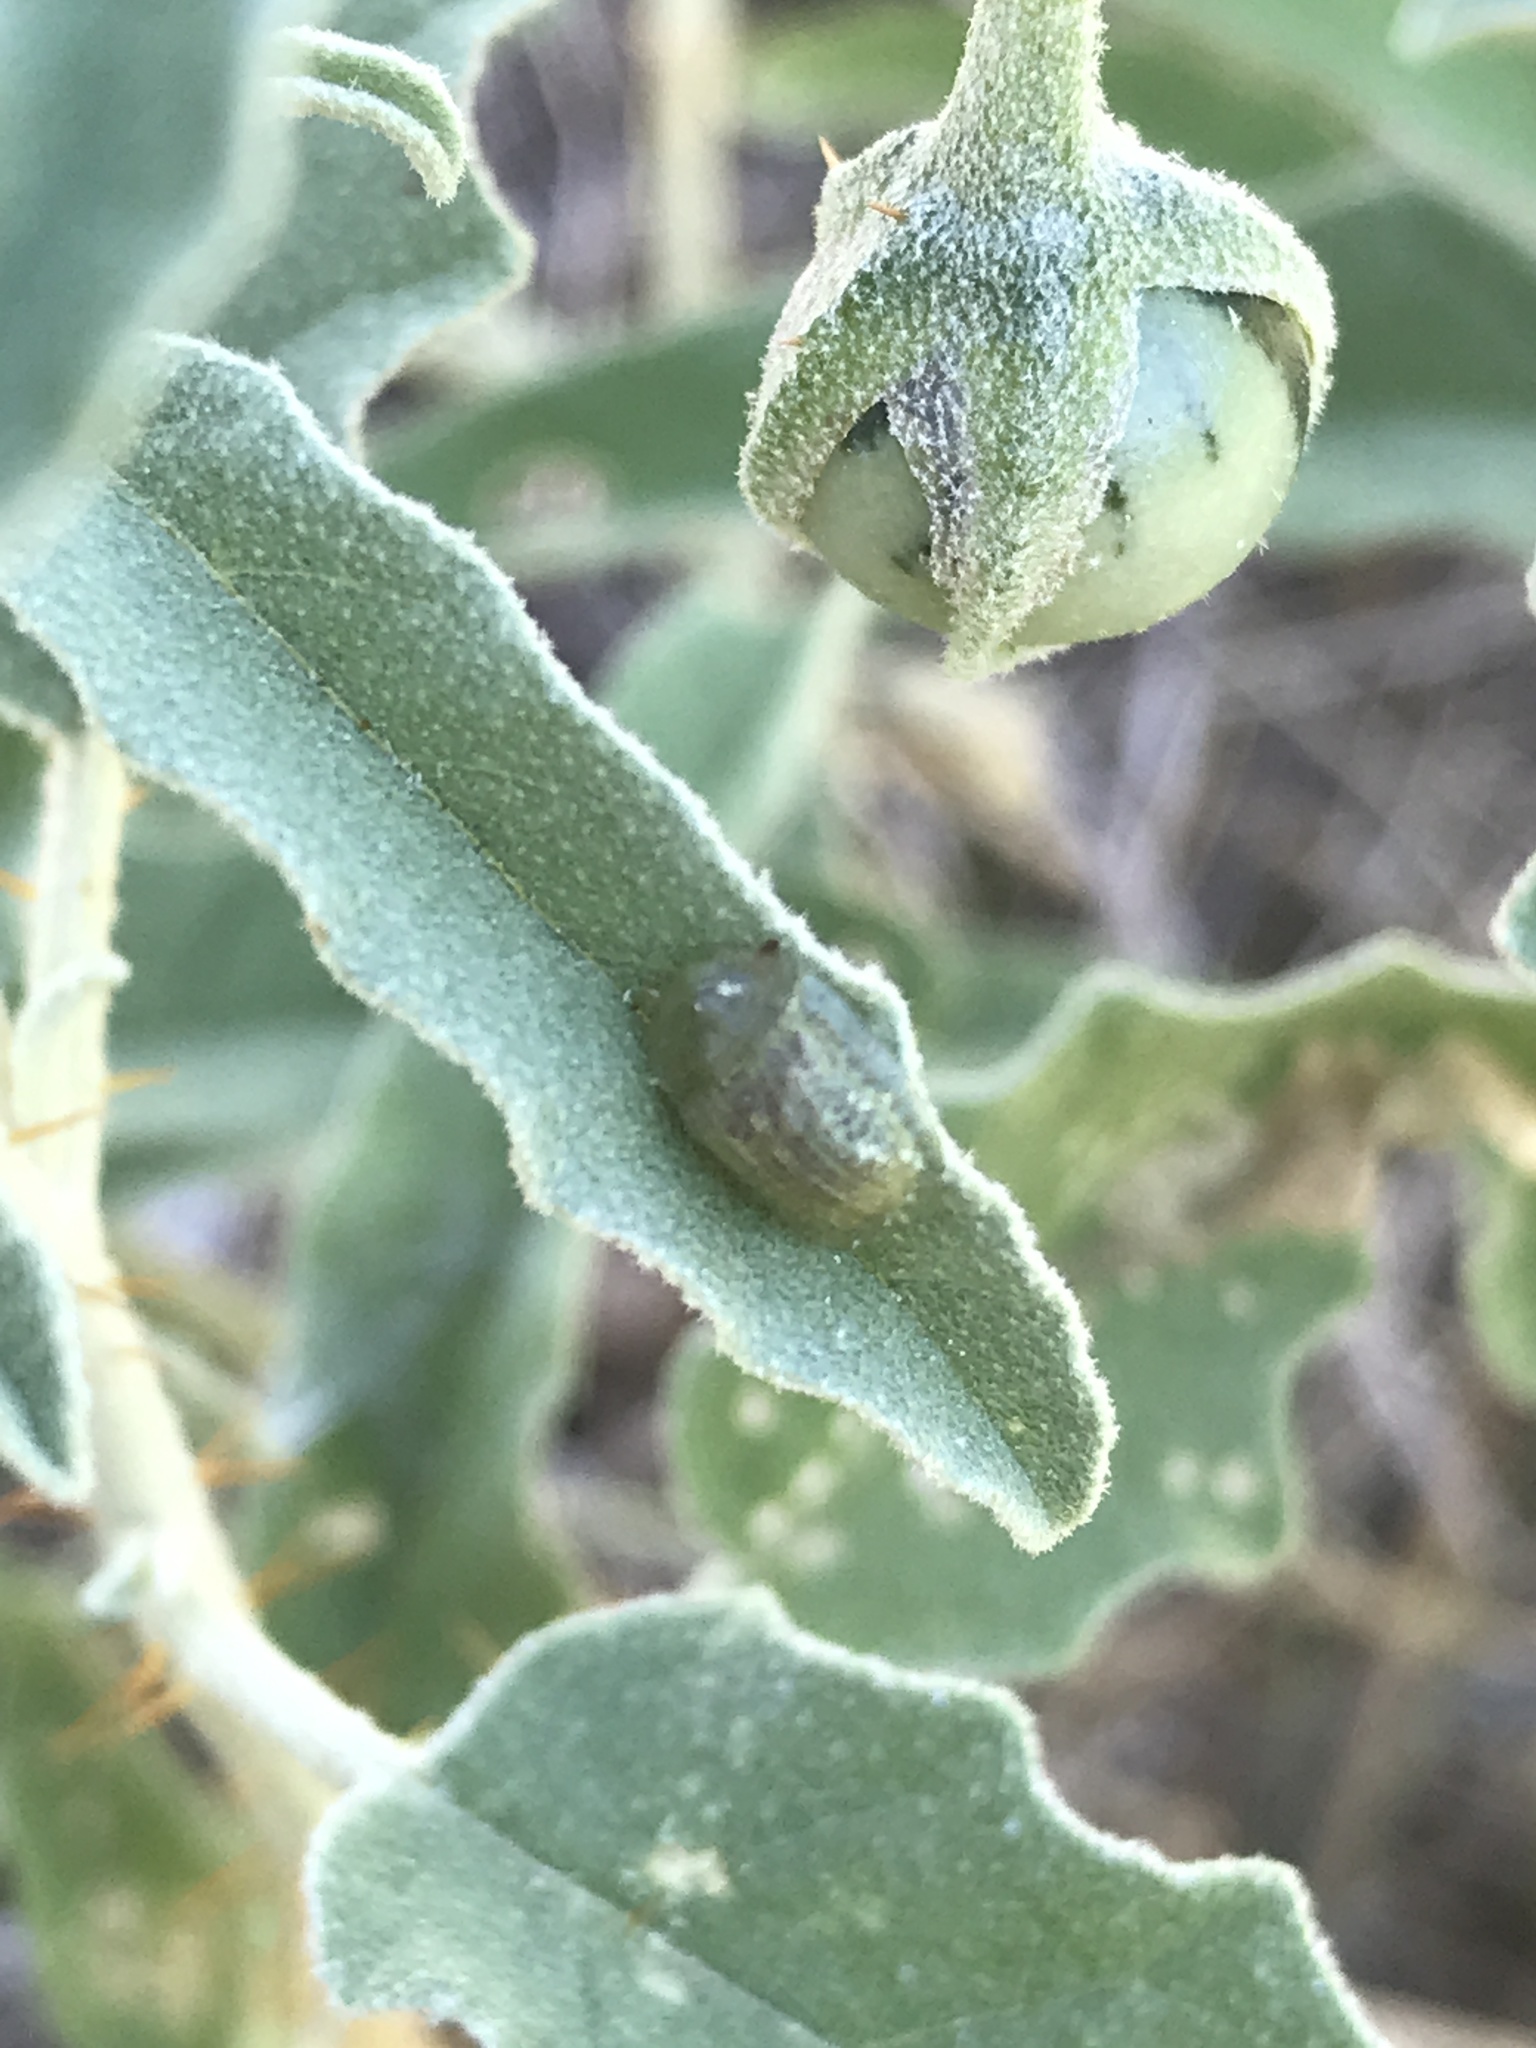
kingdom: Animalia
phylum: Arthropoda
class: Insecta
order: Coleoptera
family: Chrysomelidae
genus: Gratiana
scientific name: Gratiana pallidula
